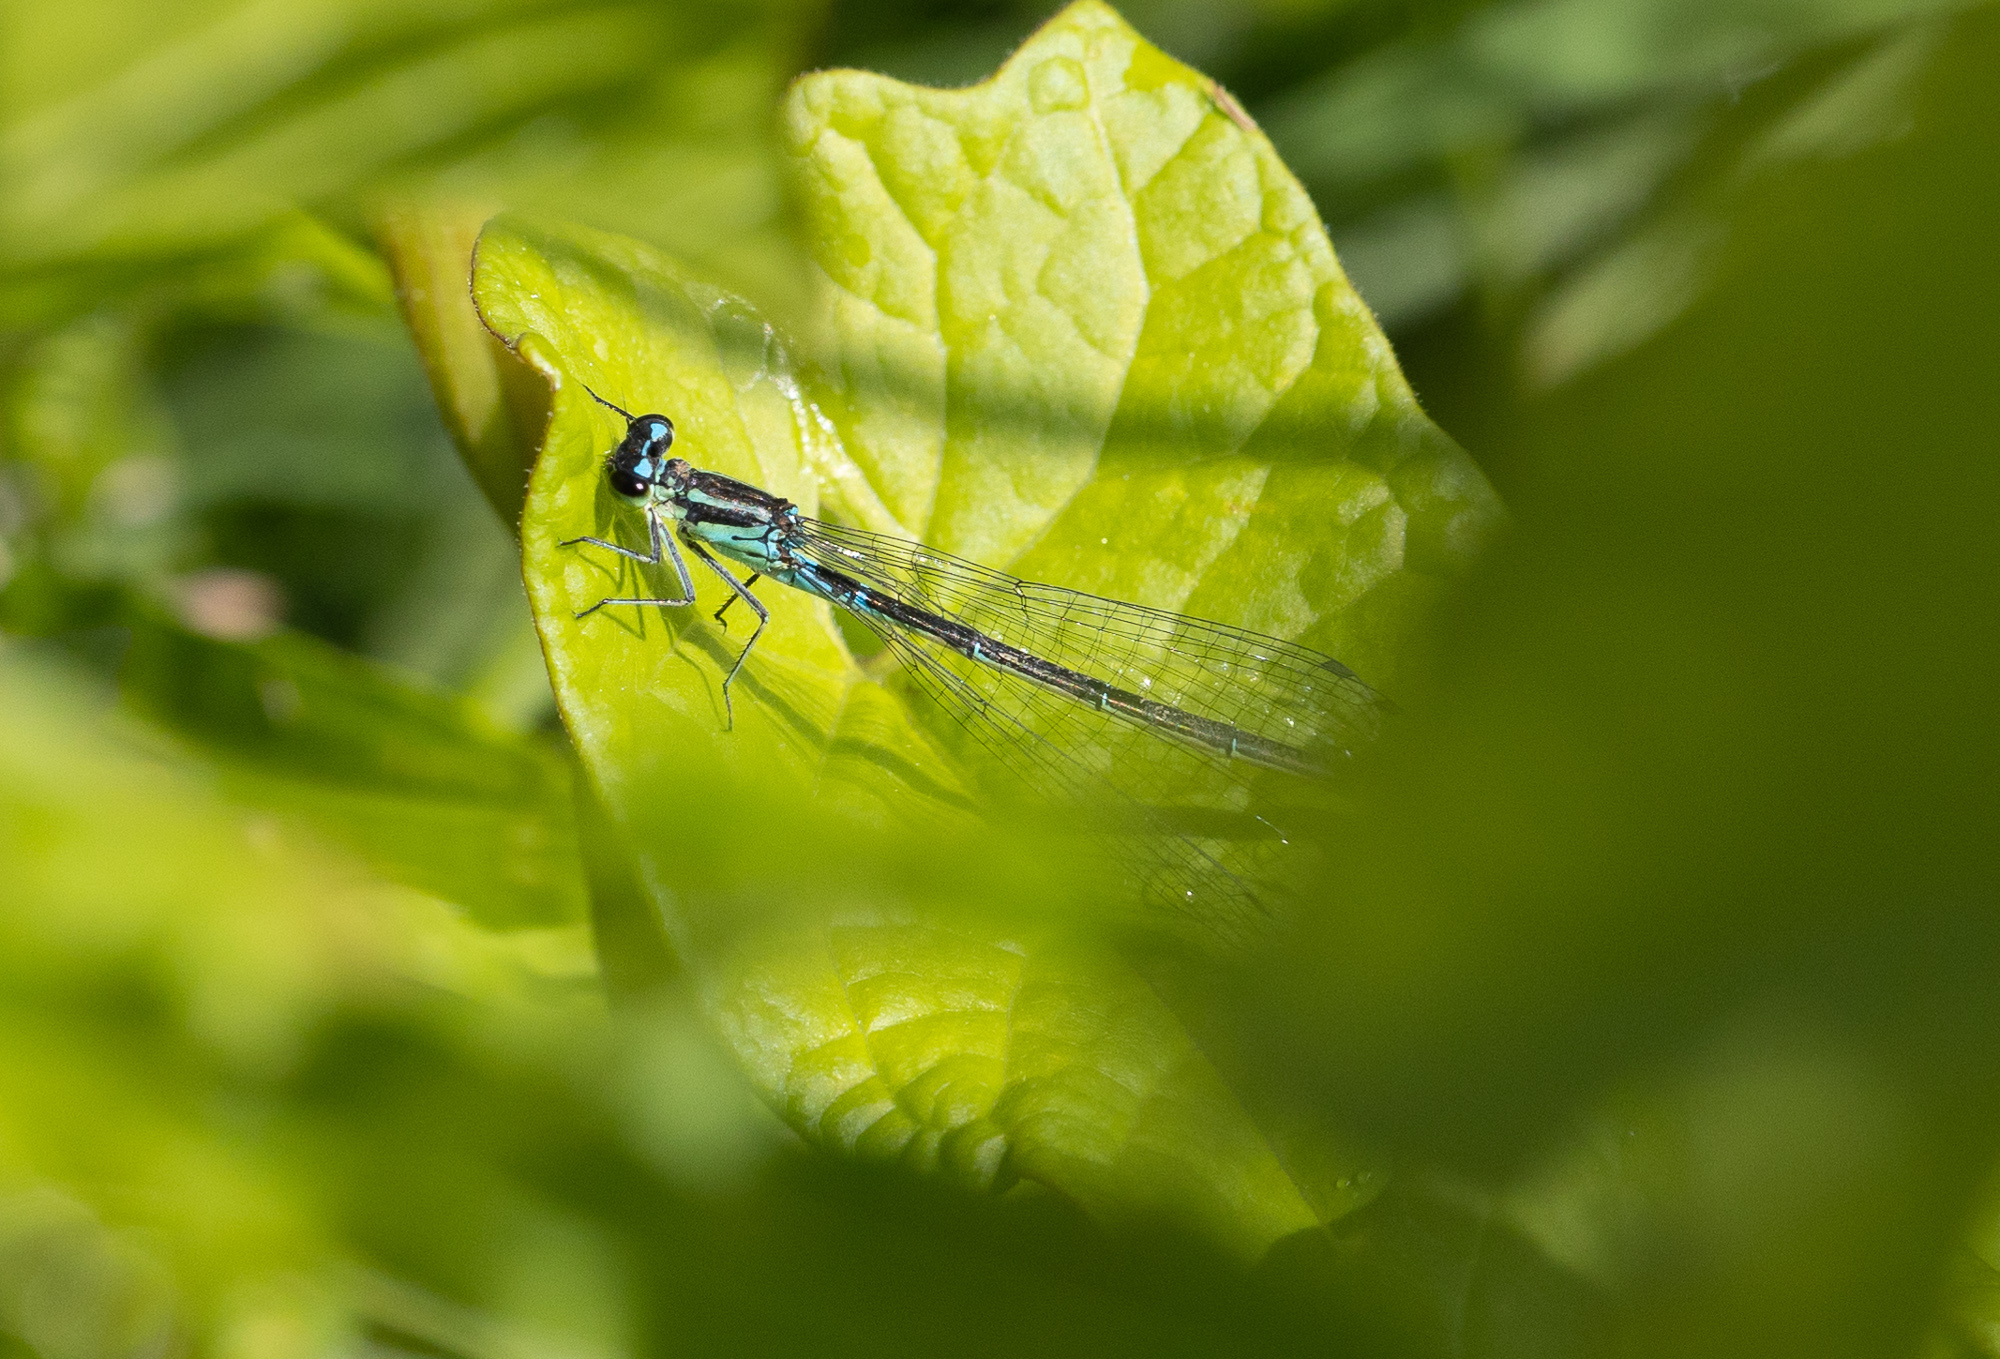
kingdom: Animalia
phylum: Arthropoda
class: Insecta
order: Odonata
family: Coenagrionidae
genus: Coenagrion
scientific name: Coenagrion pulchellum
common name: Variable bluet
